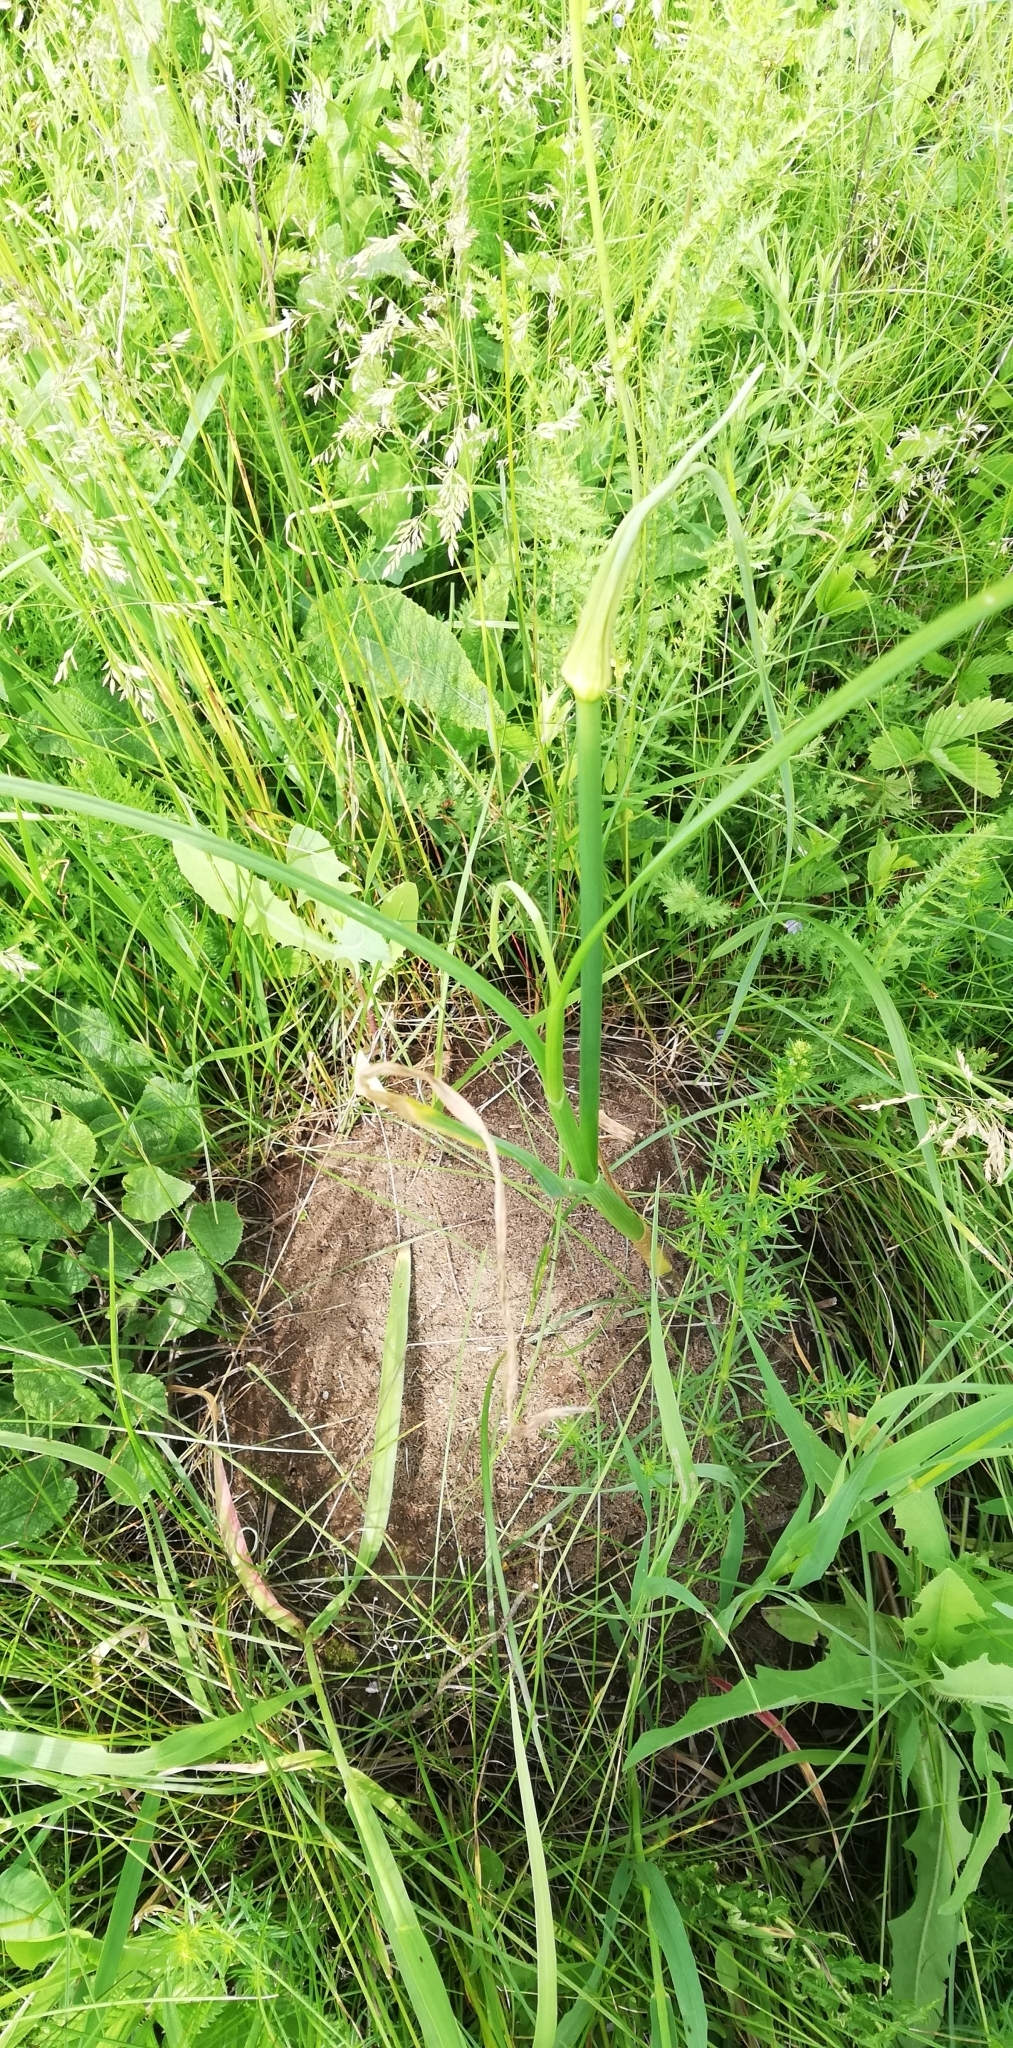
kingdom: Plantae
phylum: Tracheophyta
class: Liliopsida
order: Asparagales
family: Amaryllidaceae
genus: Allium
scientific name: Allium oleraceum
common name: Field garlic
